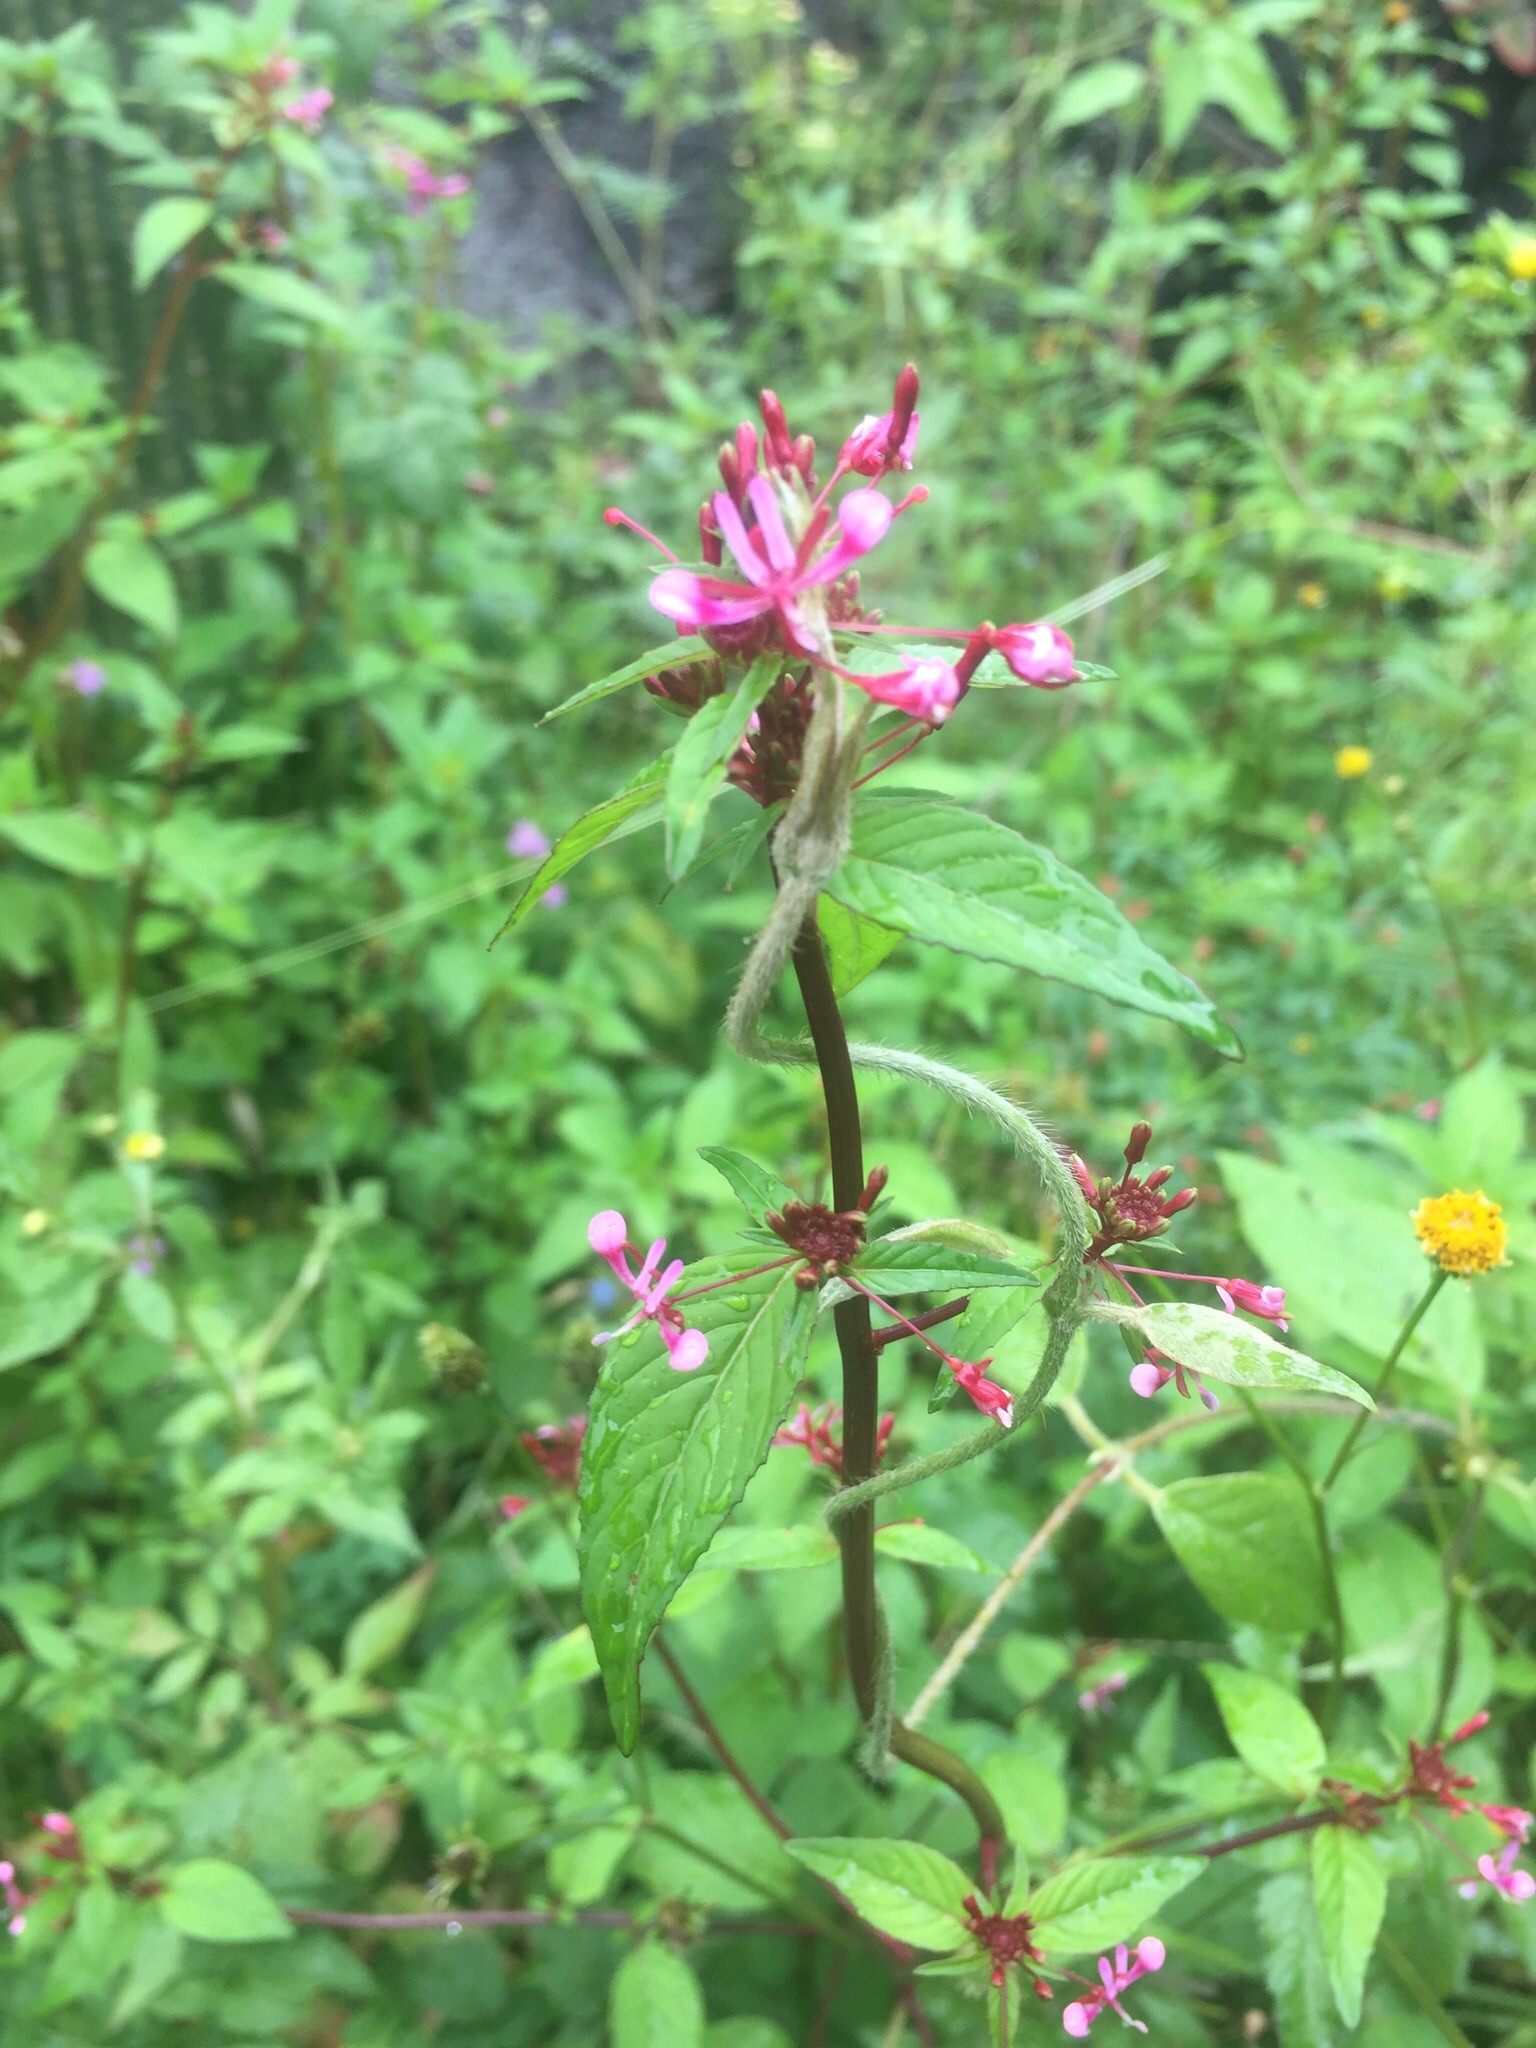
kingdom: Plantae
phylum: Tracheophyta
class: Magnoliopsida
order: Myrtales
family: Onagraceae
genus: Lopezia
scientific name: Lopezia racemosa
